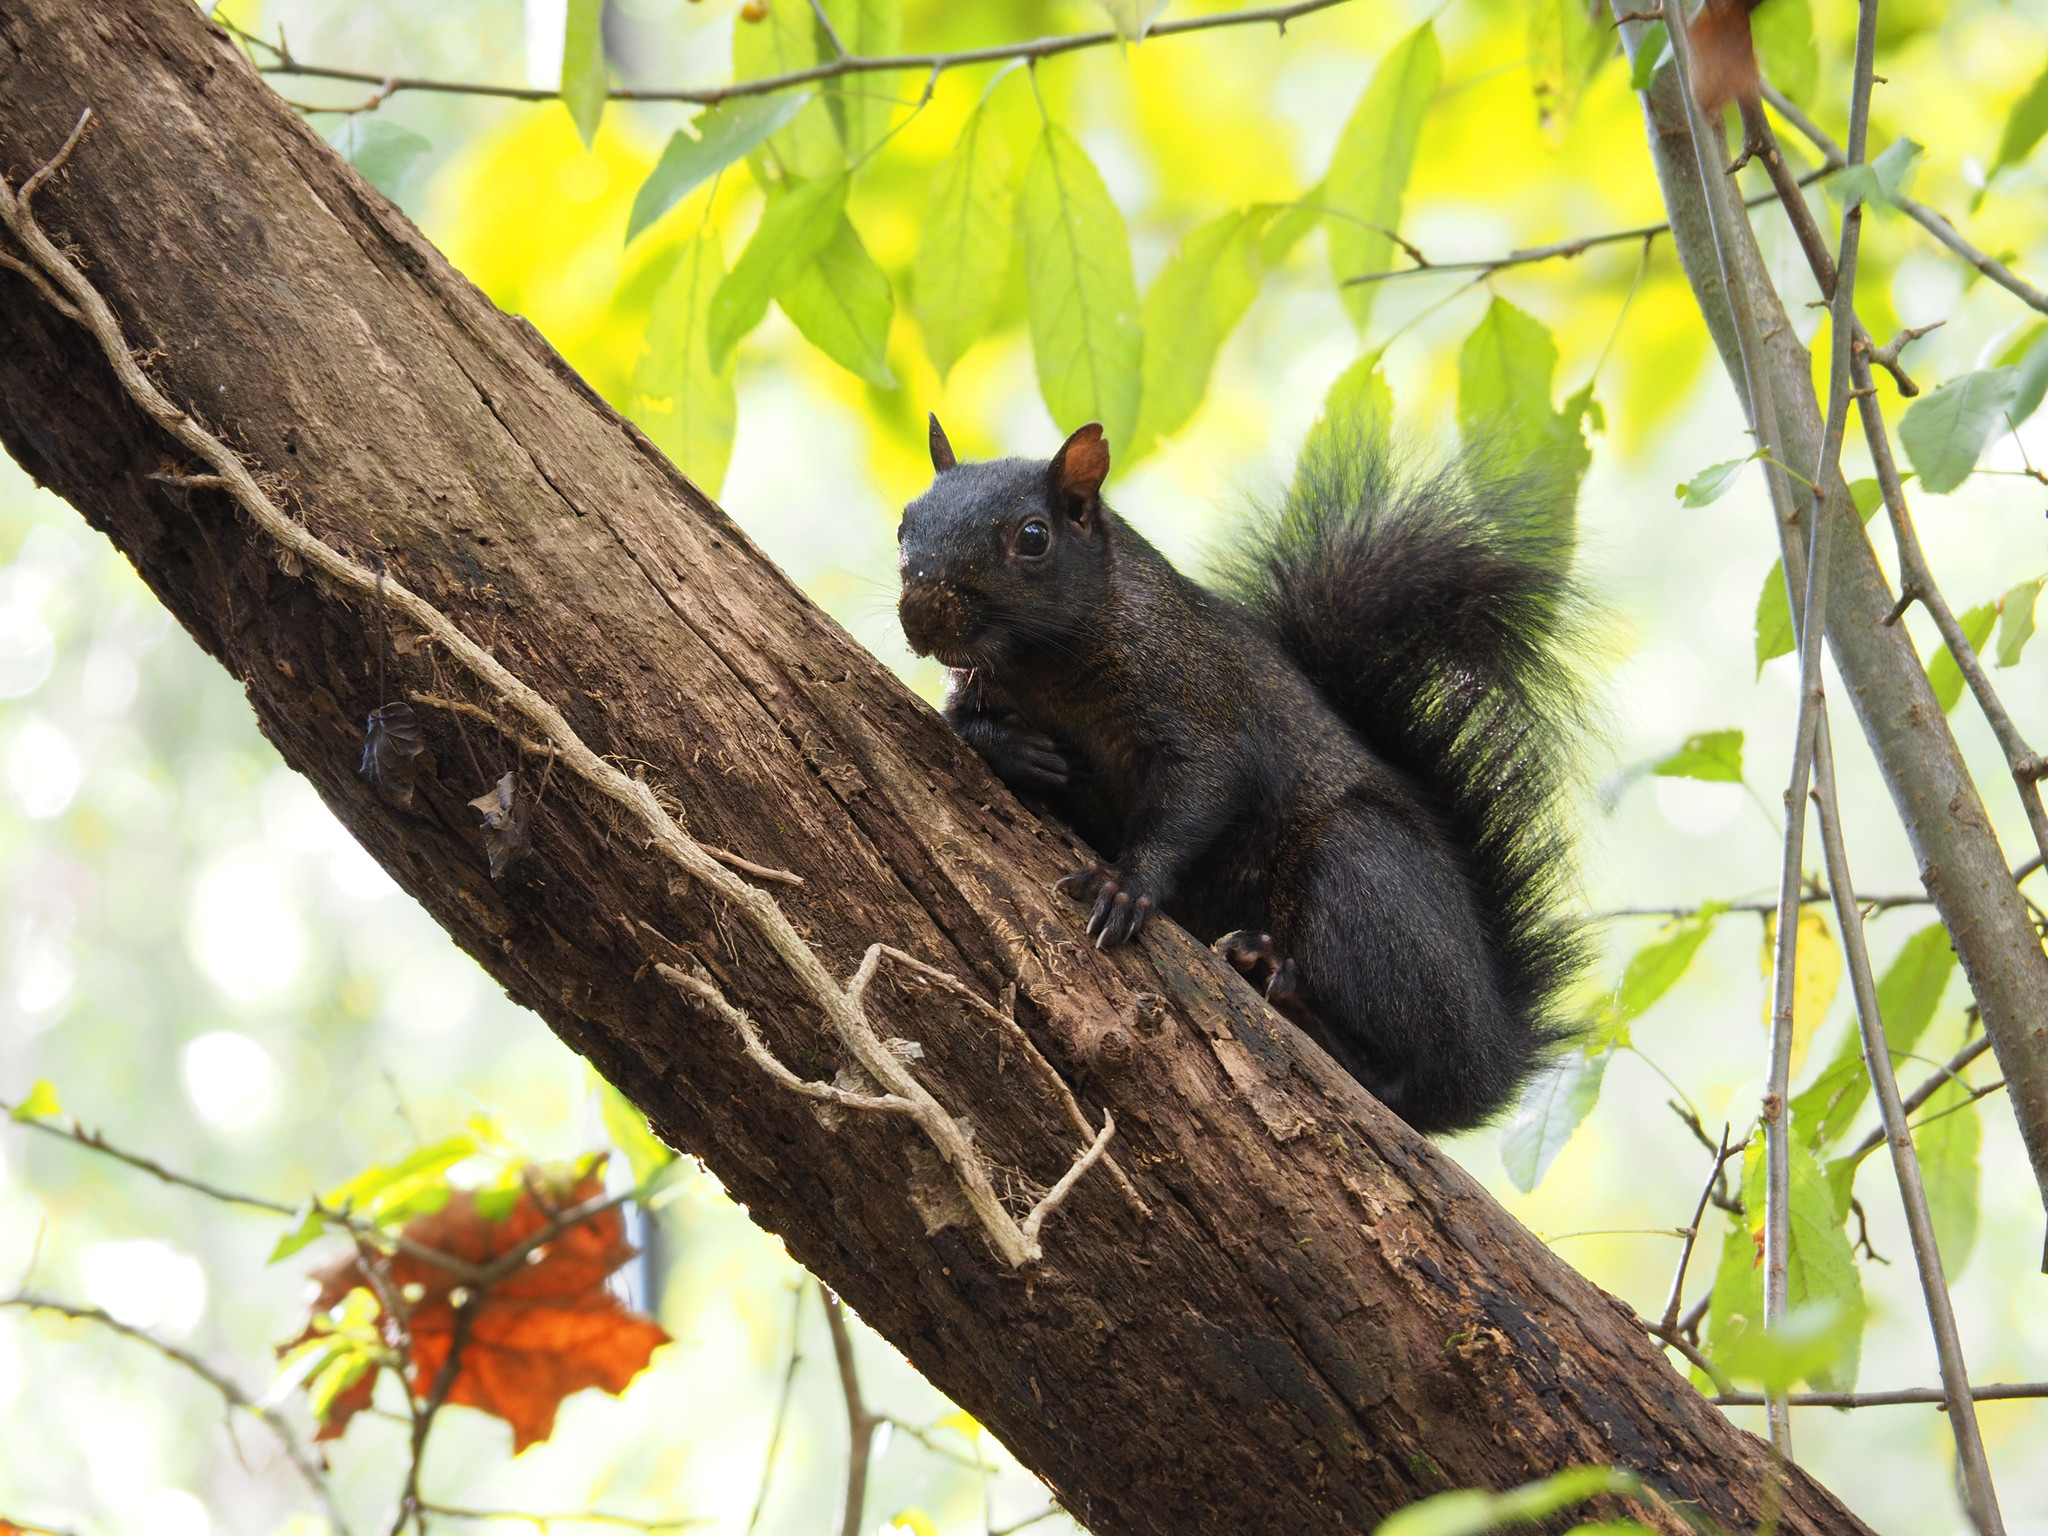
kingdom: Animalia
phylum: Chordata
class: Mammalia
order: Rodentia
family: Sciuridae
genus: Sciurus
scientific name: Sciurus carolinensis
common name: Eastern gray squirrel
